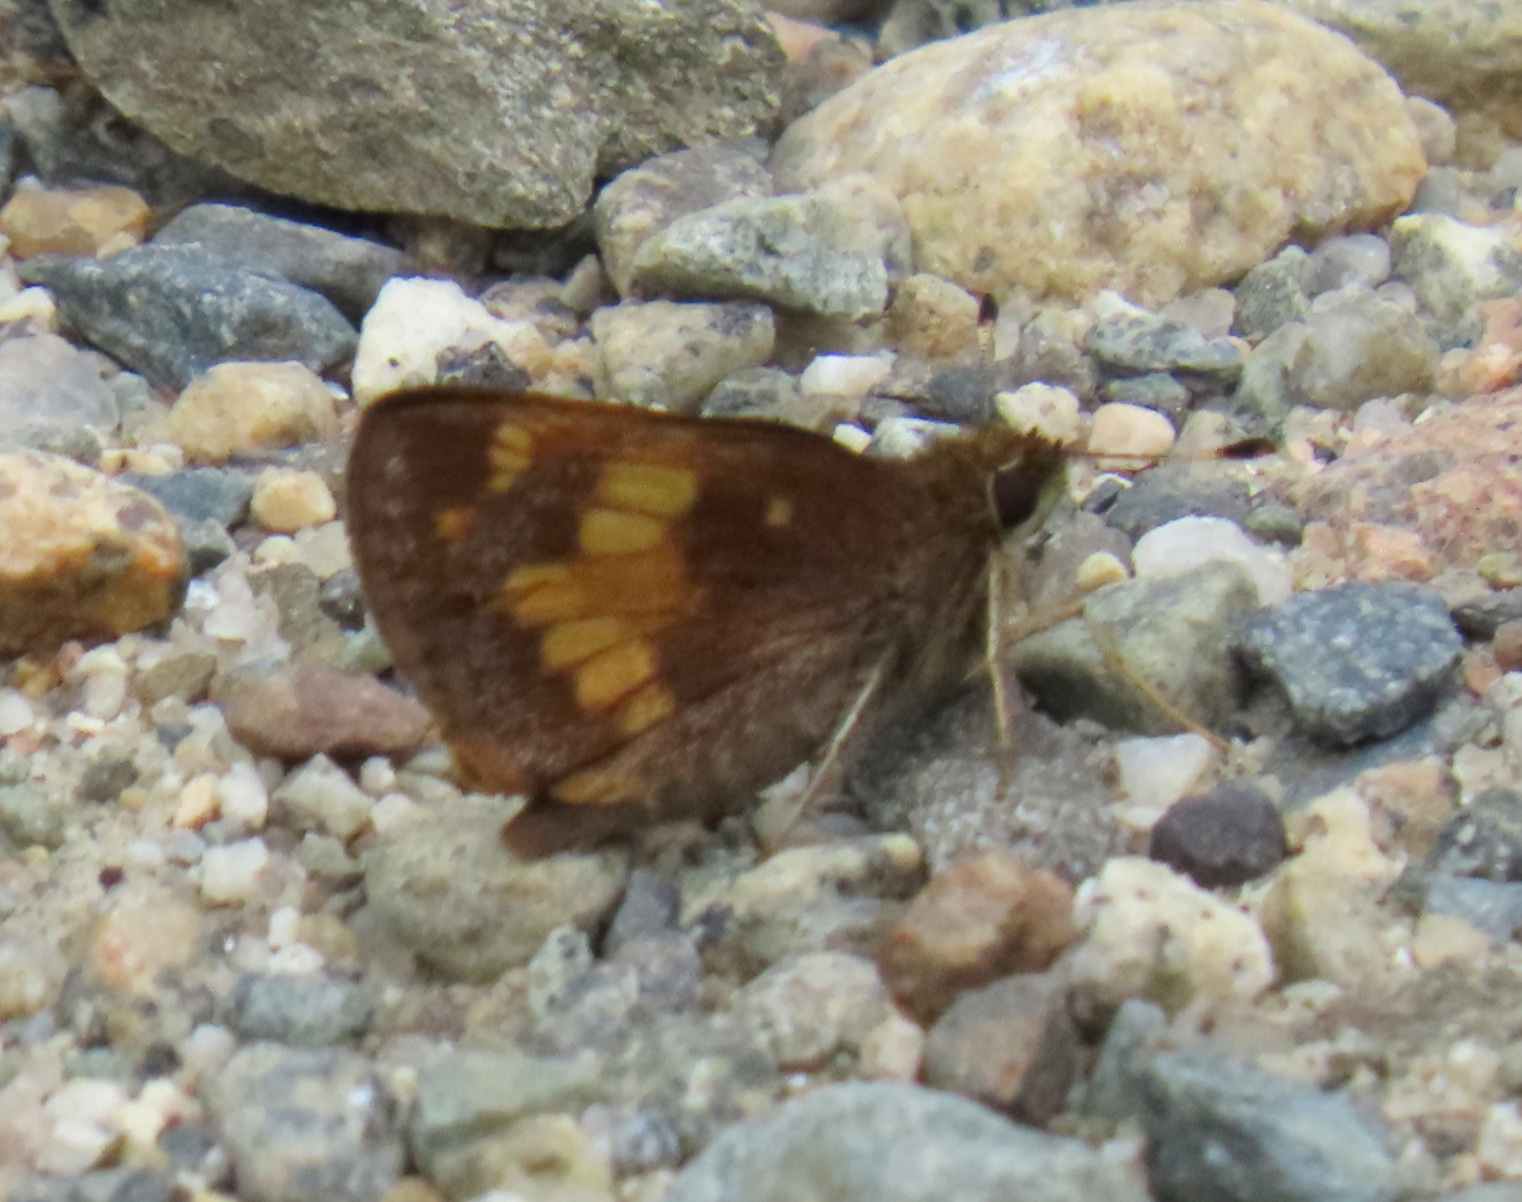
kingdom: Animalia
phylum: Arthropoda
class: Insecta
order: Lepidoptera
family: Hesperiidae
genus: Lon
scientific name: Lon hobomok
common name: Hobomok skipper
